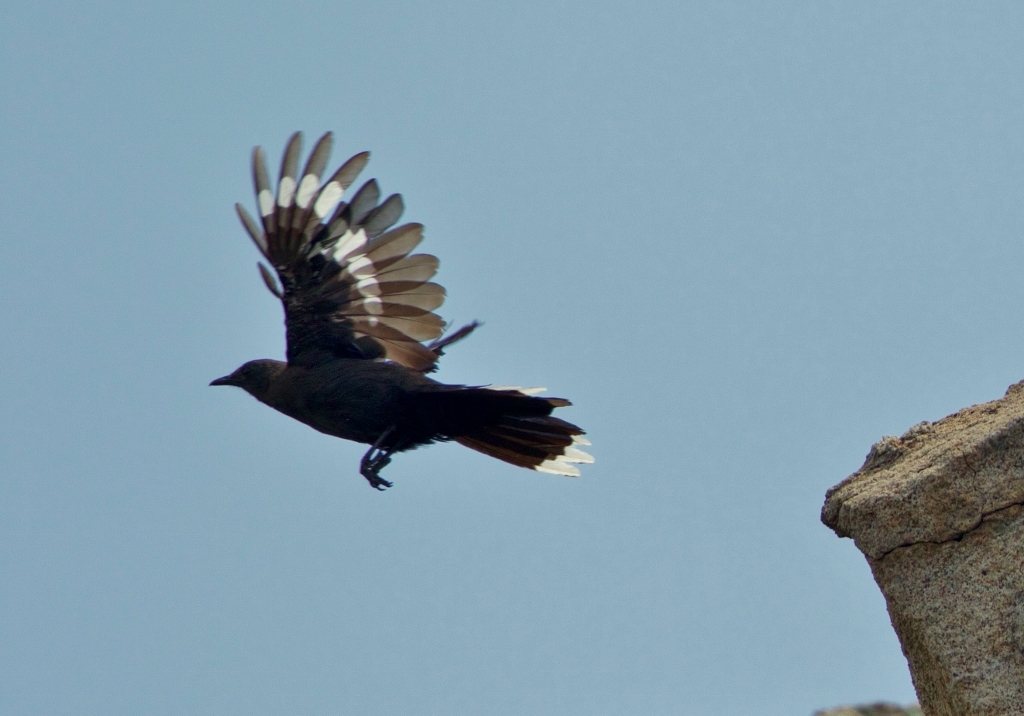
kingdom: Animalia
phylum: Chordata
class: Aves
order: Passeriformes
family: Muscicapidae
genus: Pinarornis
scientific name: Pinarornis plumosus
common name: Boulder chat
